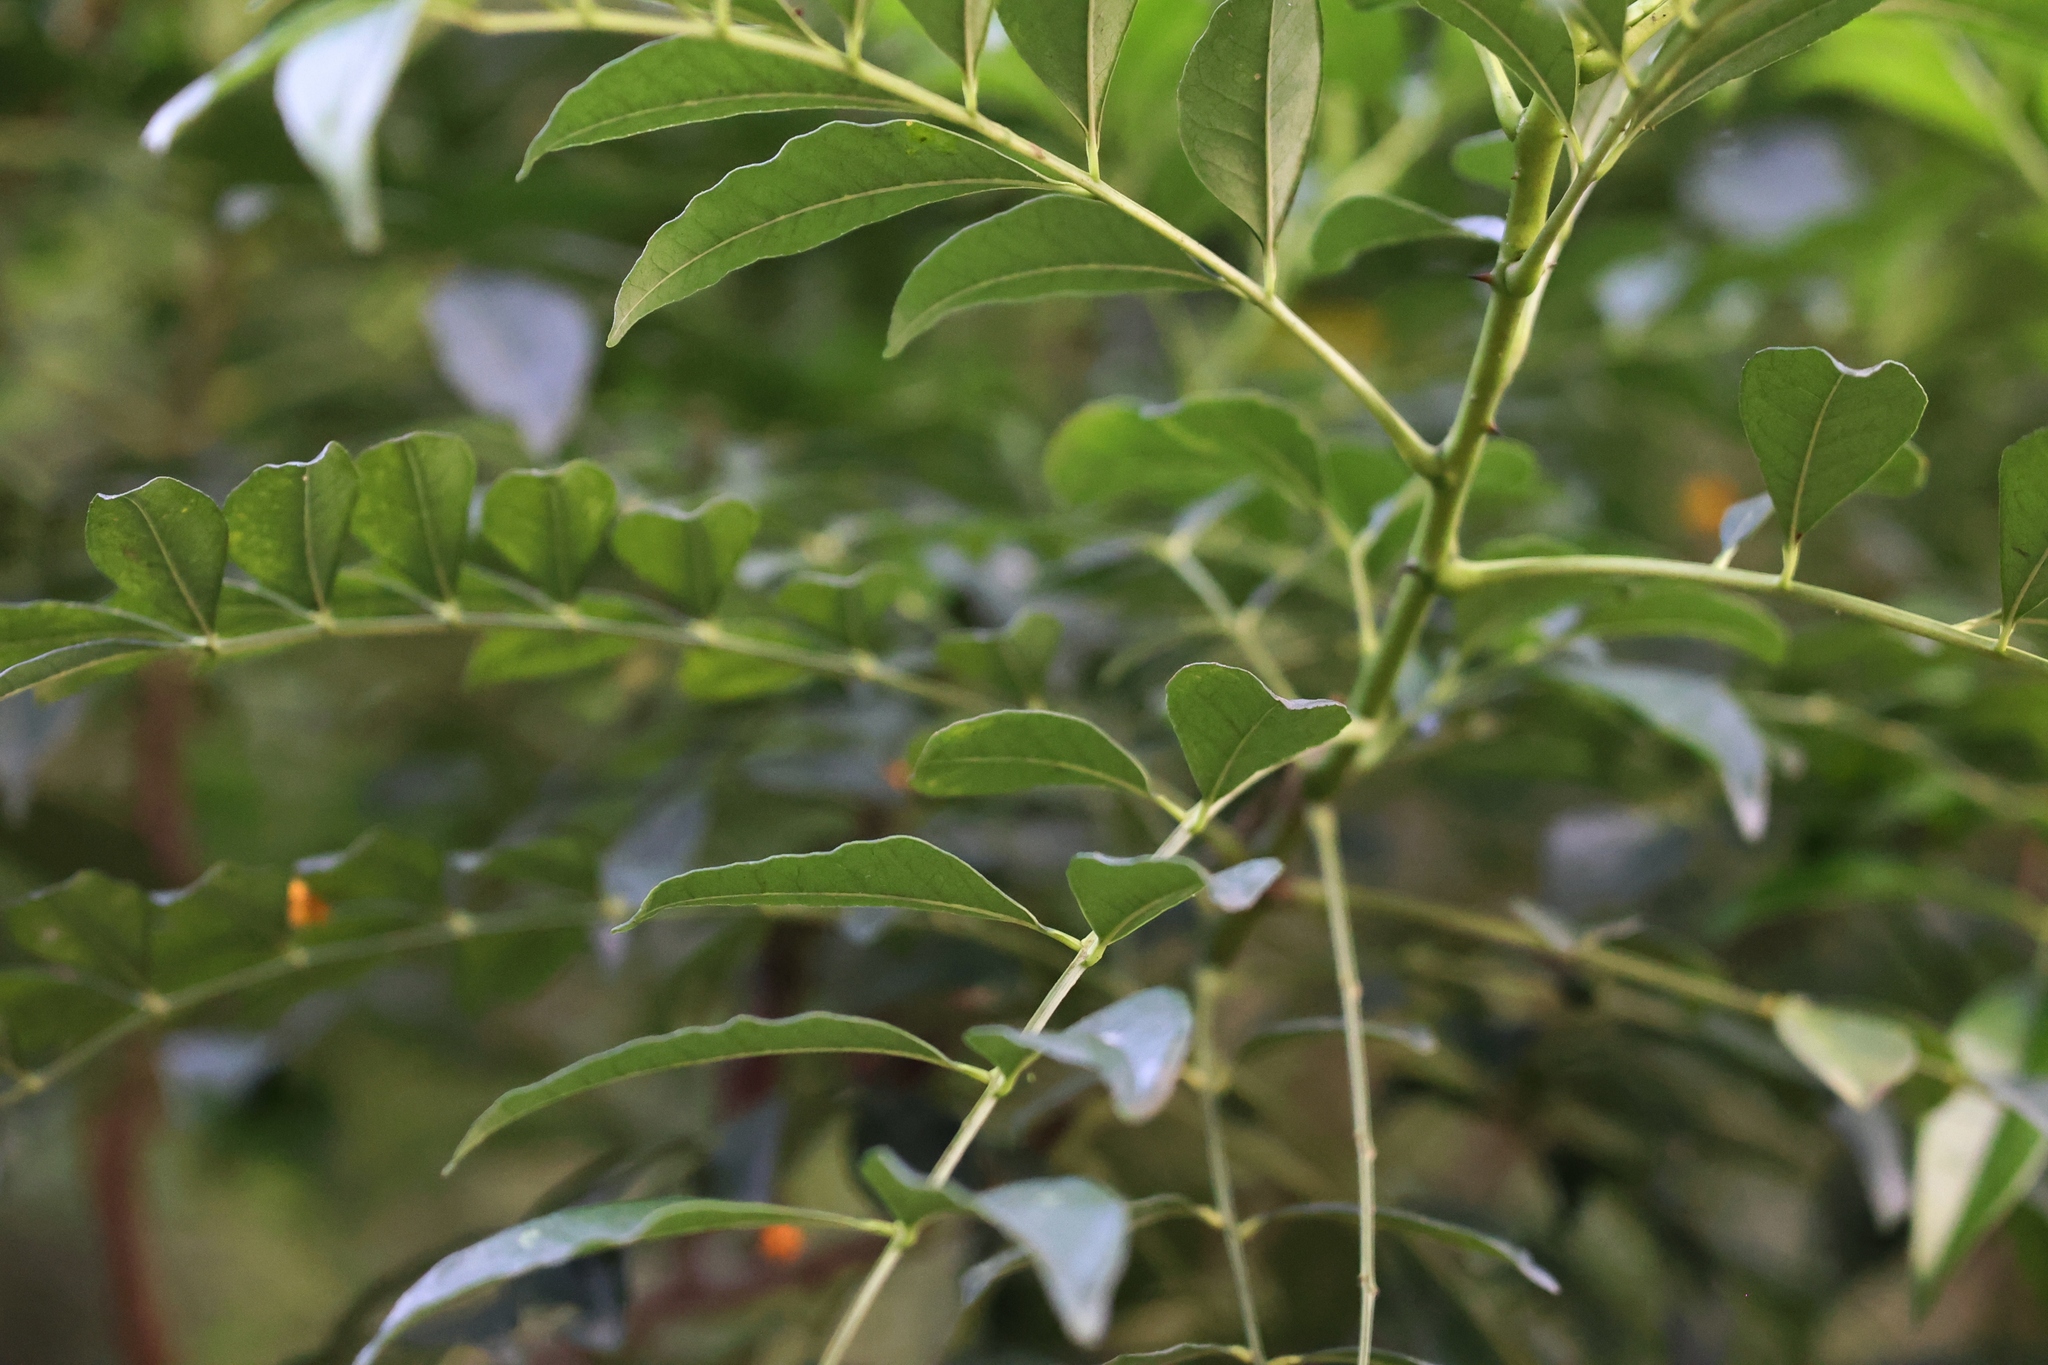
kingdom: Plantae
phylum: Tracheophyta
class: Magnoliopsida
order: Sapindales
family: Rutaceae
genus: Zanthoxylum
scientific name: Zanthoxylum avicennae
